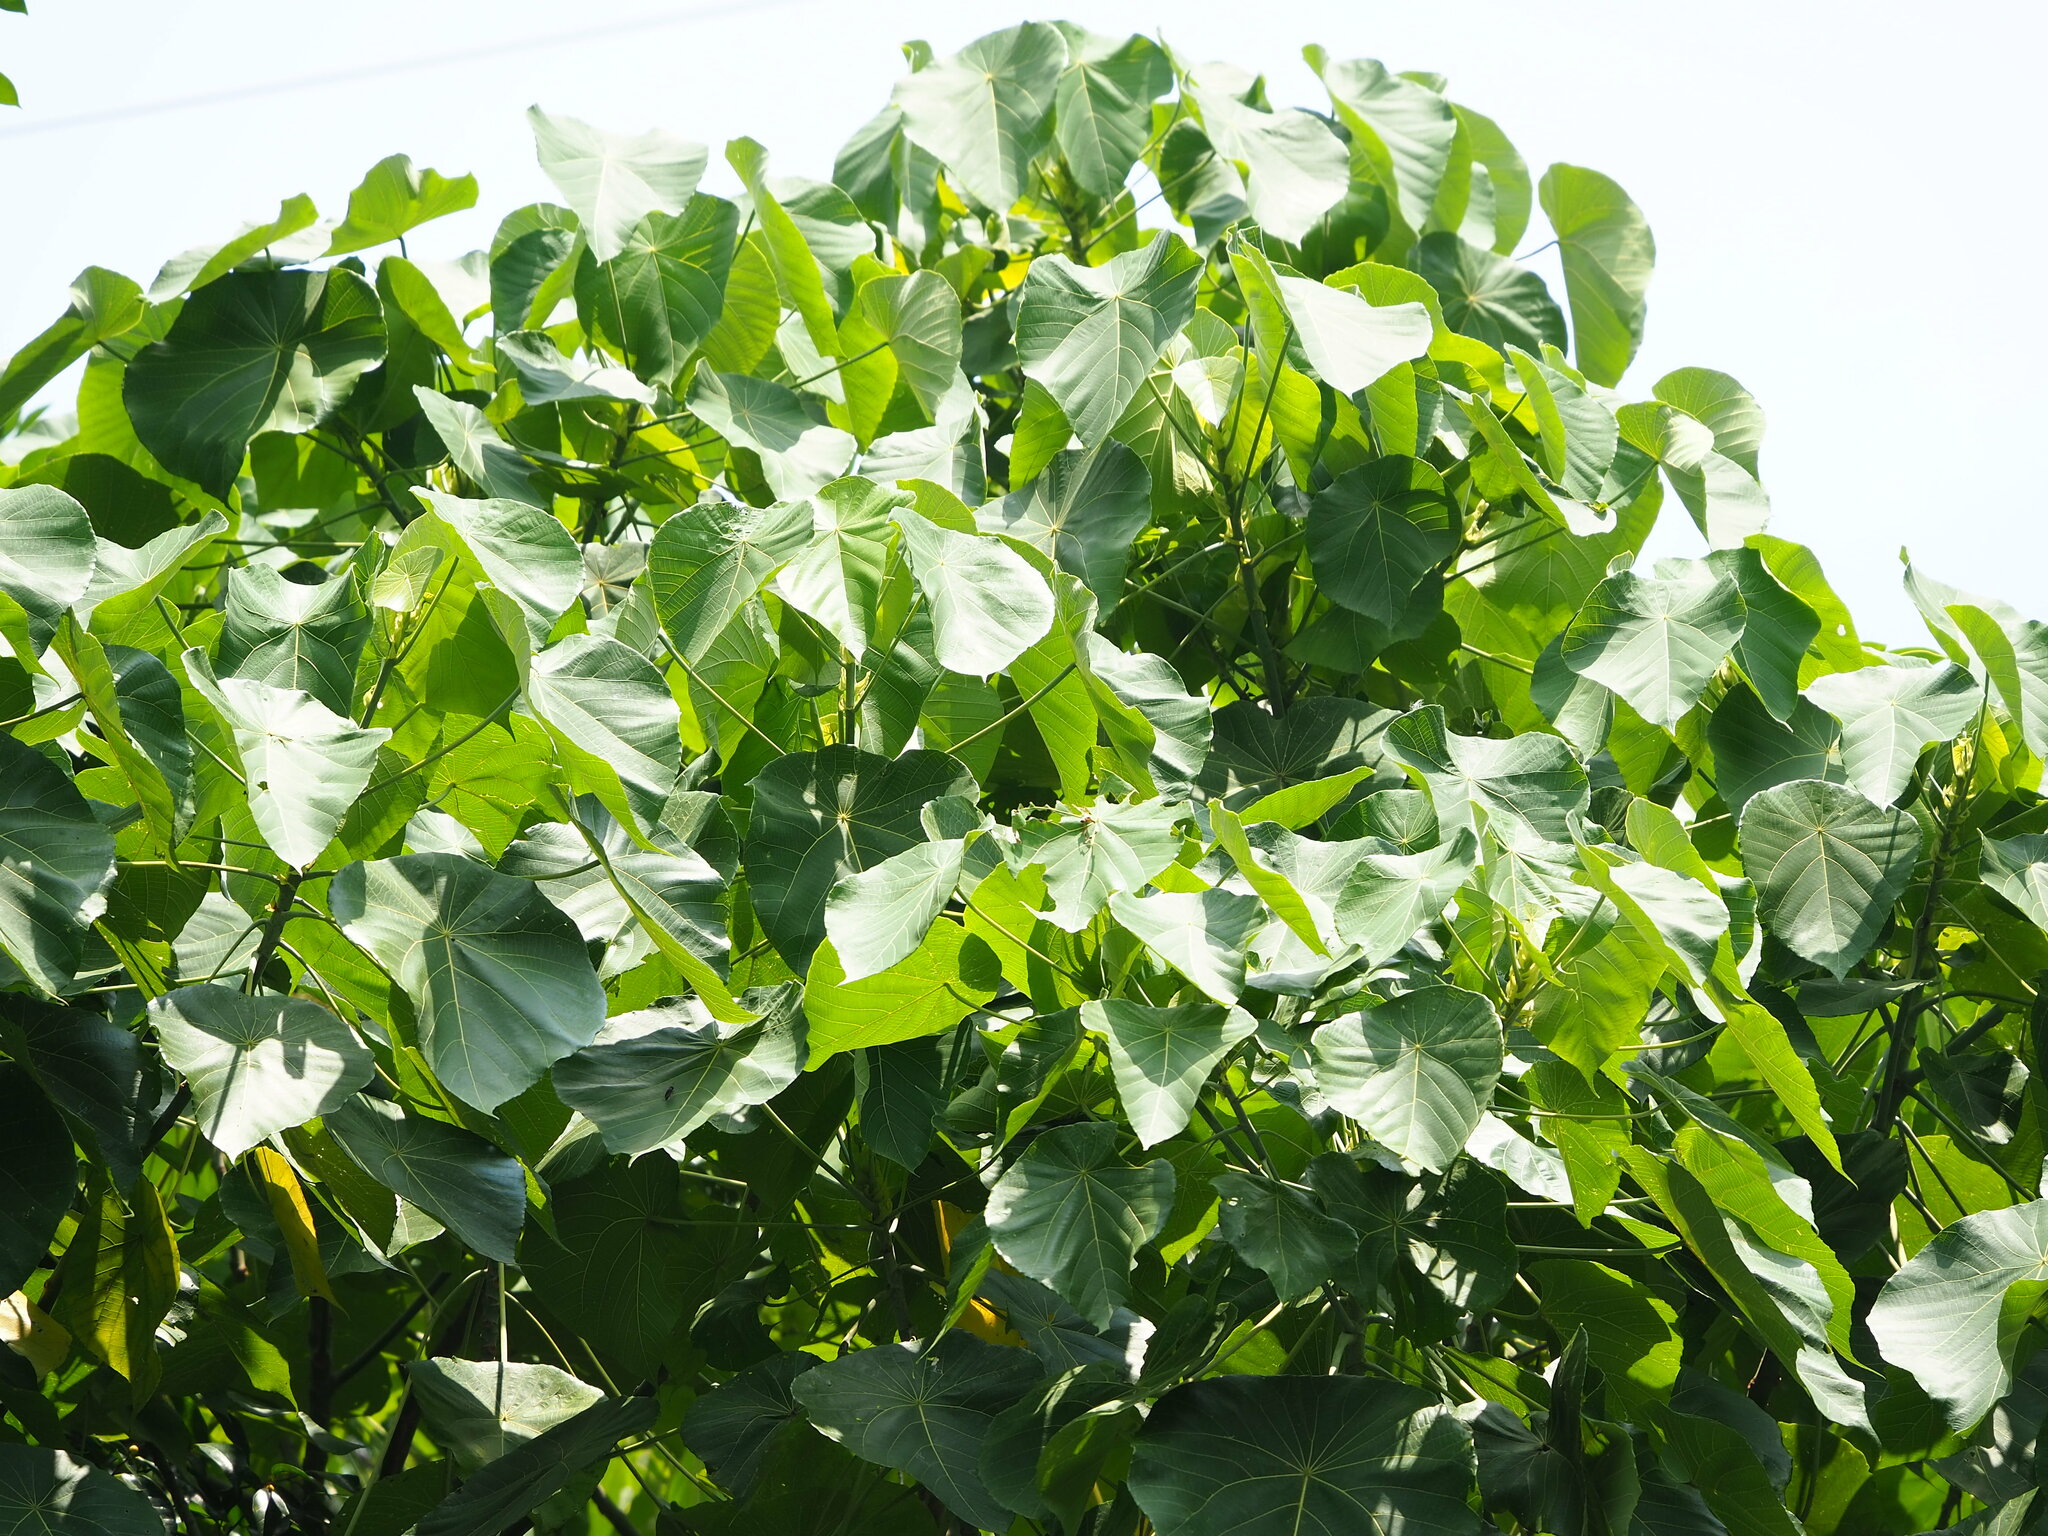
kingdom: Plantae
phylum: Tracheophyta
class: Magnoliopsida
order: Malpighiales
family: Euphorbiaceae
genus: Macaranga
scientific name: Macaranga tanarius
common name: Parasol leaf tree
